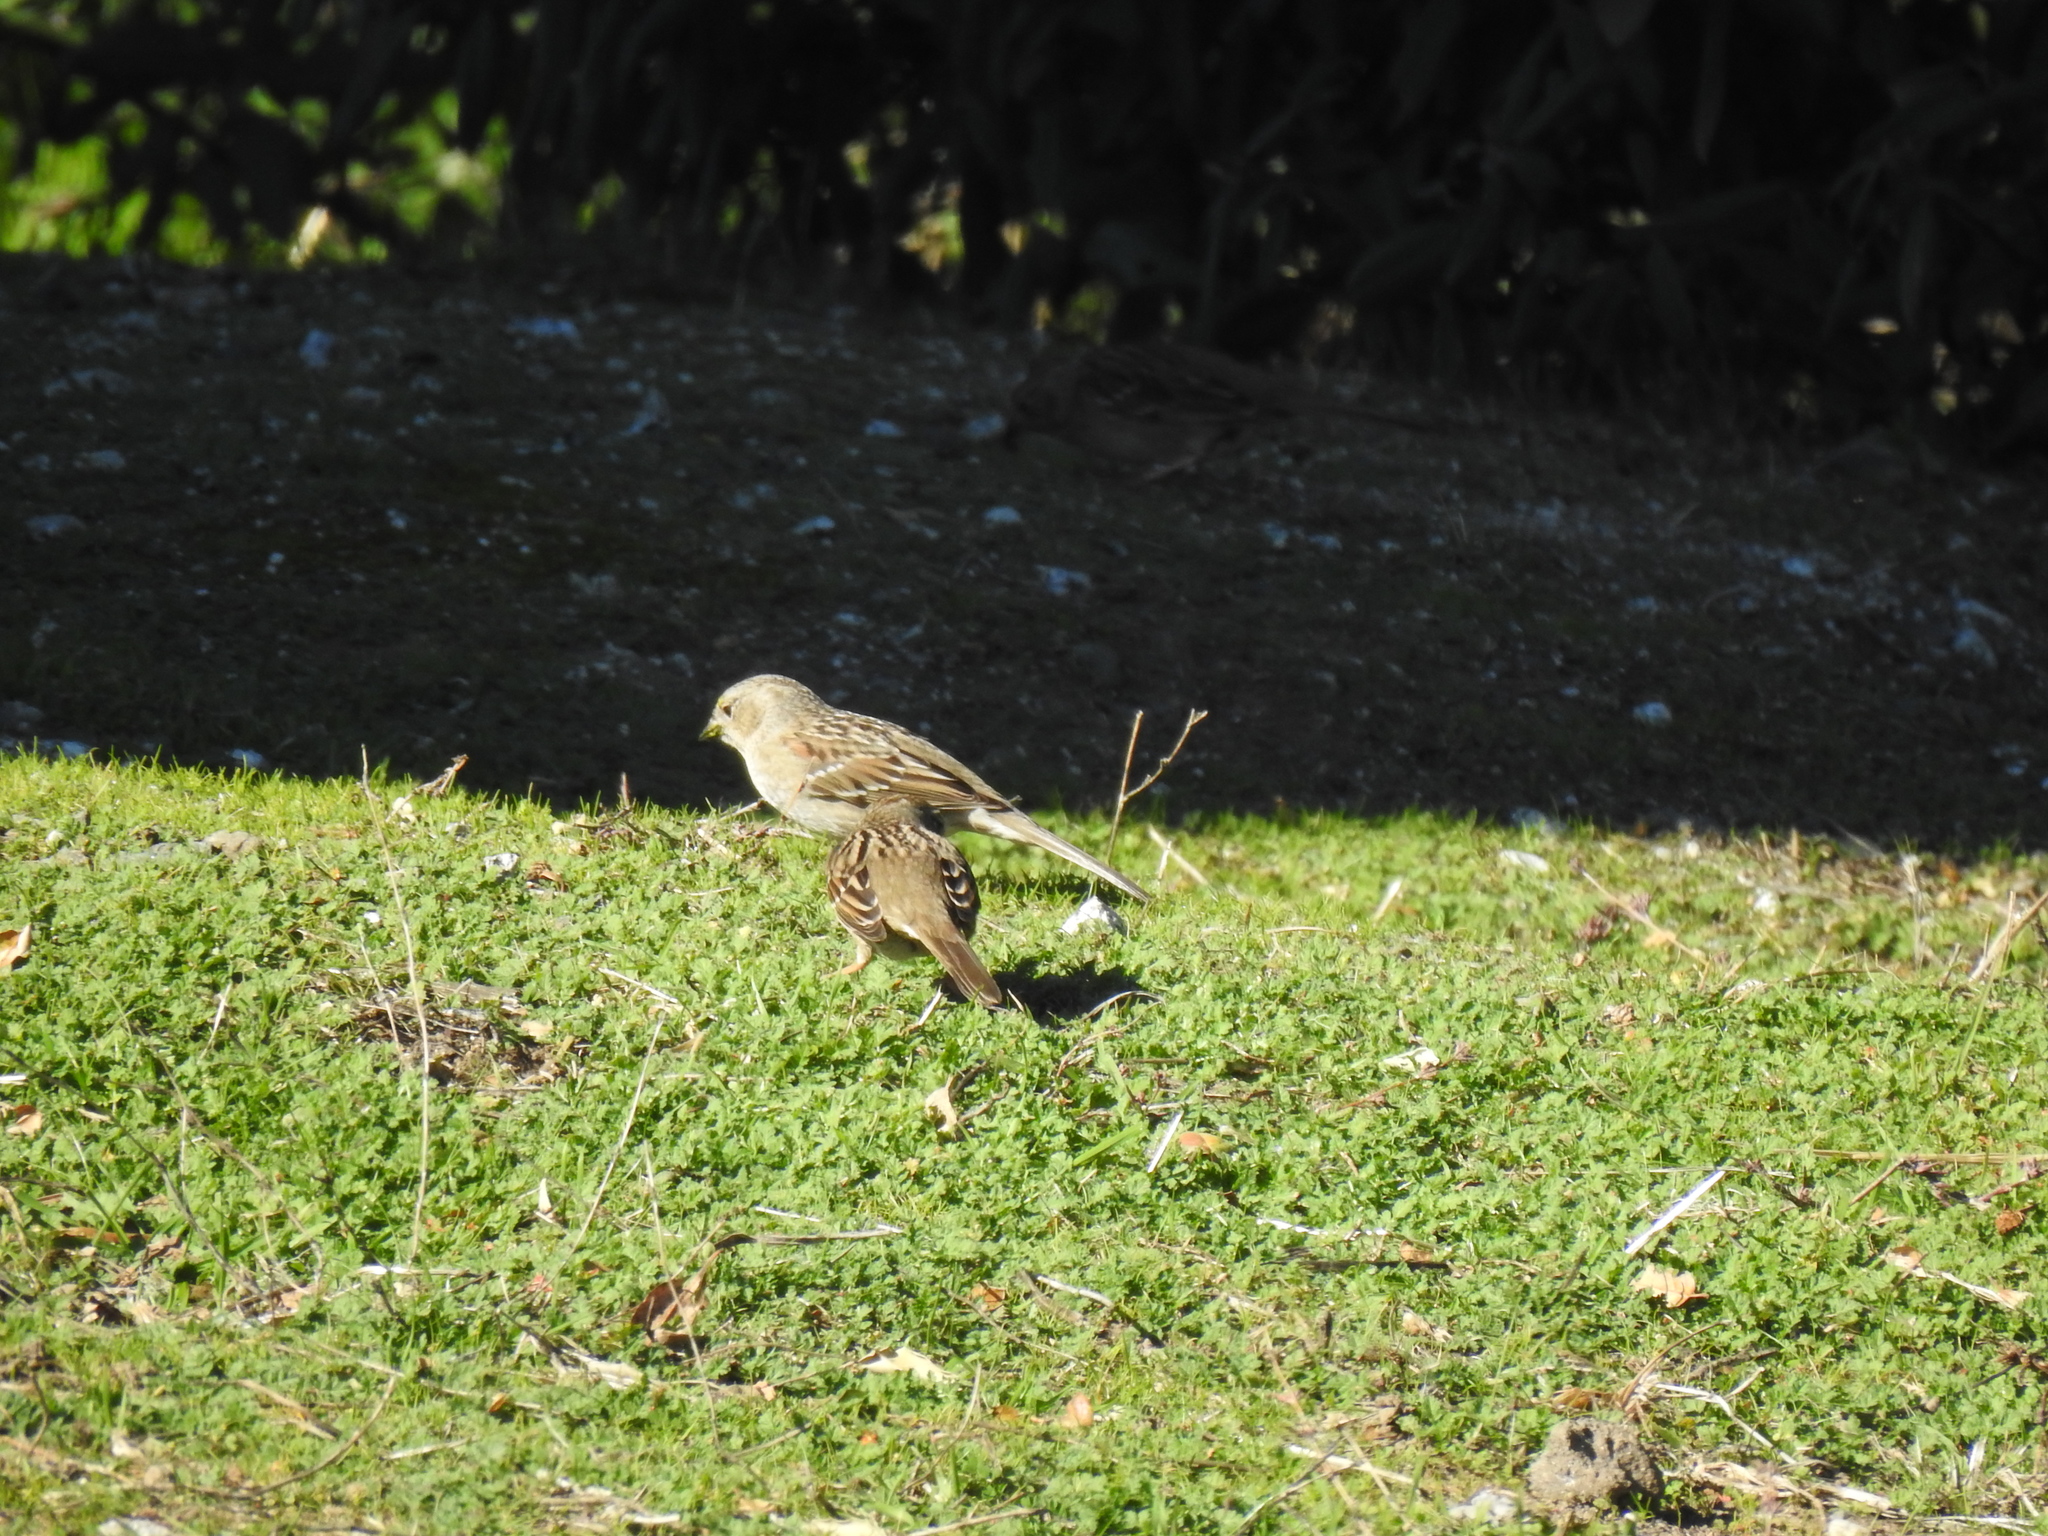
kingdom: Animalia
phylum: Chordata
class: Aves
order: Passeriformes
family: Passerellidae
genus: Zonotrichia
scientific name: Zonotrichia atricapilla
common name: Golden-crowned sparrow
